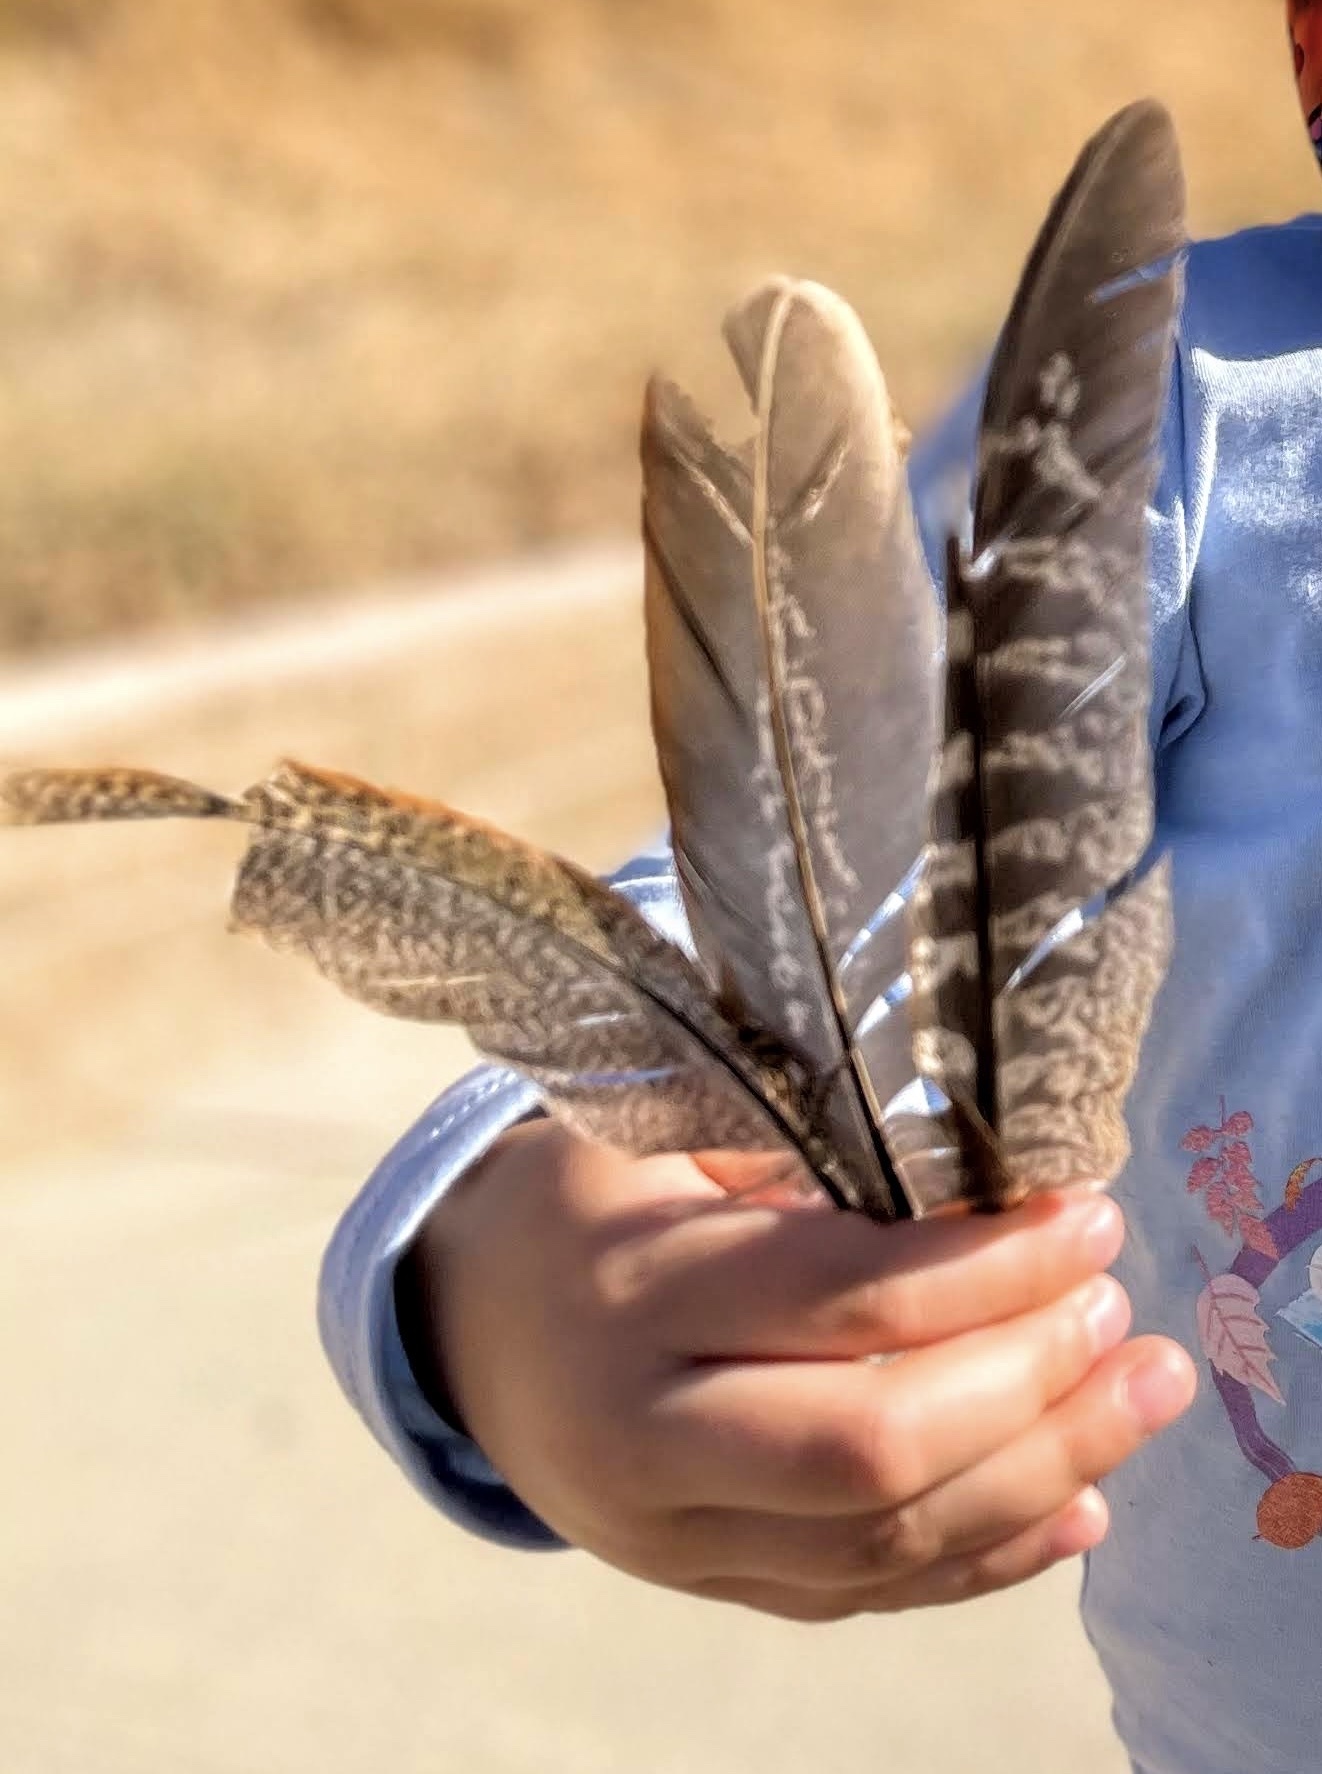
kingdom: Animalia
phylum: Chordata
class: Aves
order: Galliformes
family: Phasianidae
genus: Phasianus
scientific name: Phasianus colchicus
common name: Common pheasant
